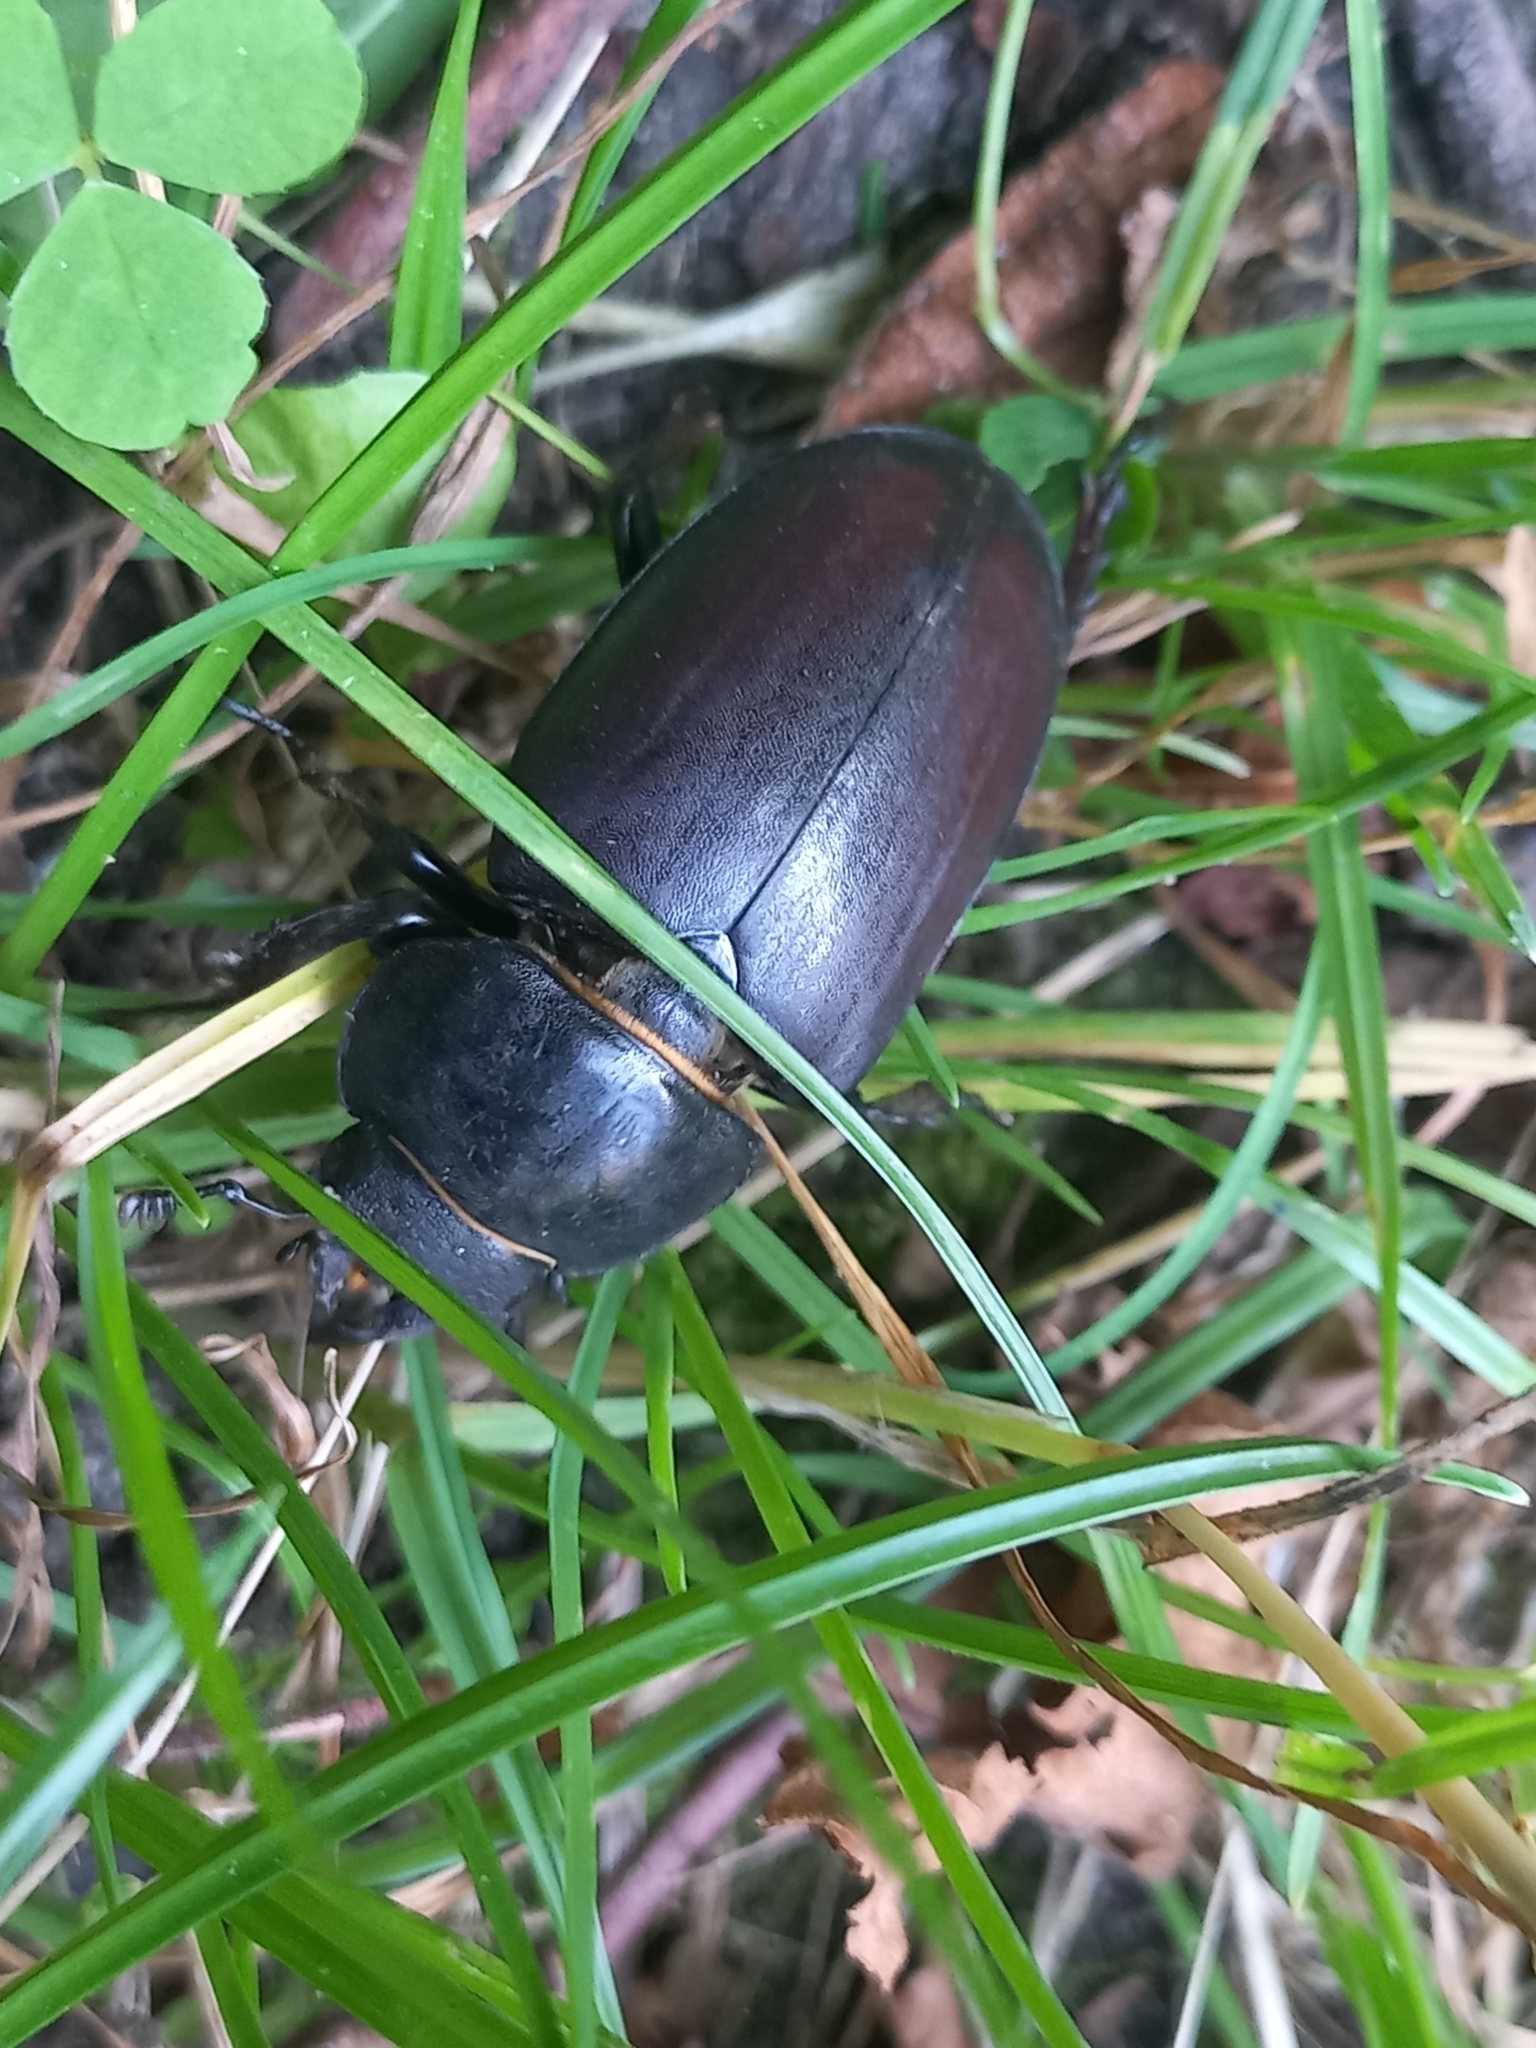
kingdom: Animalia
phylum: Arthropoda
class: Insecta
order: Coleoptera
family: Lucanidae
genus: Lucanus
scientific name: Lucanus cervus
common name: Stag beetle
